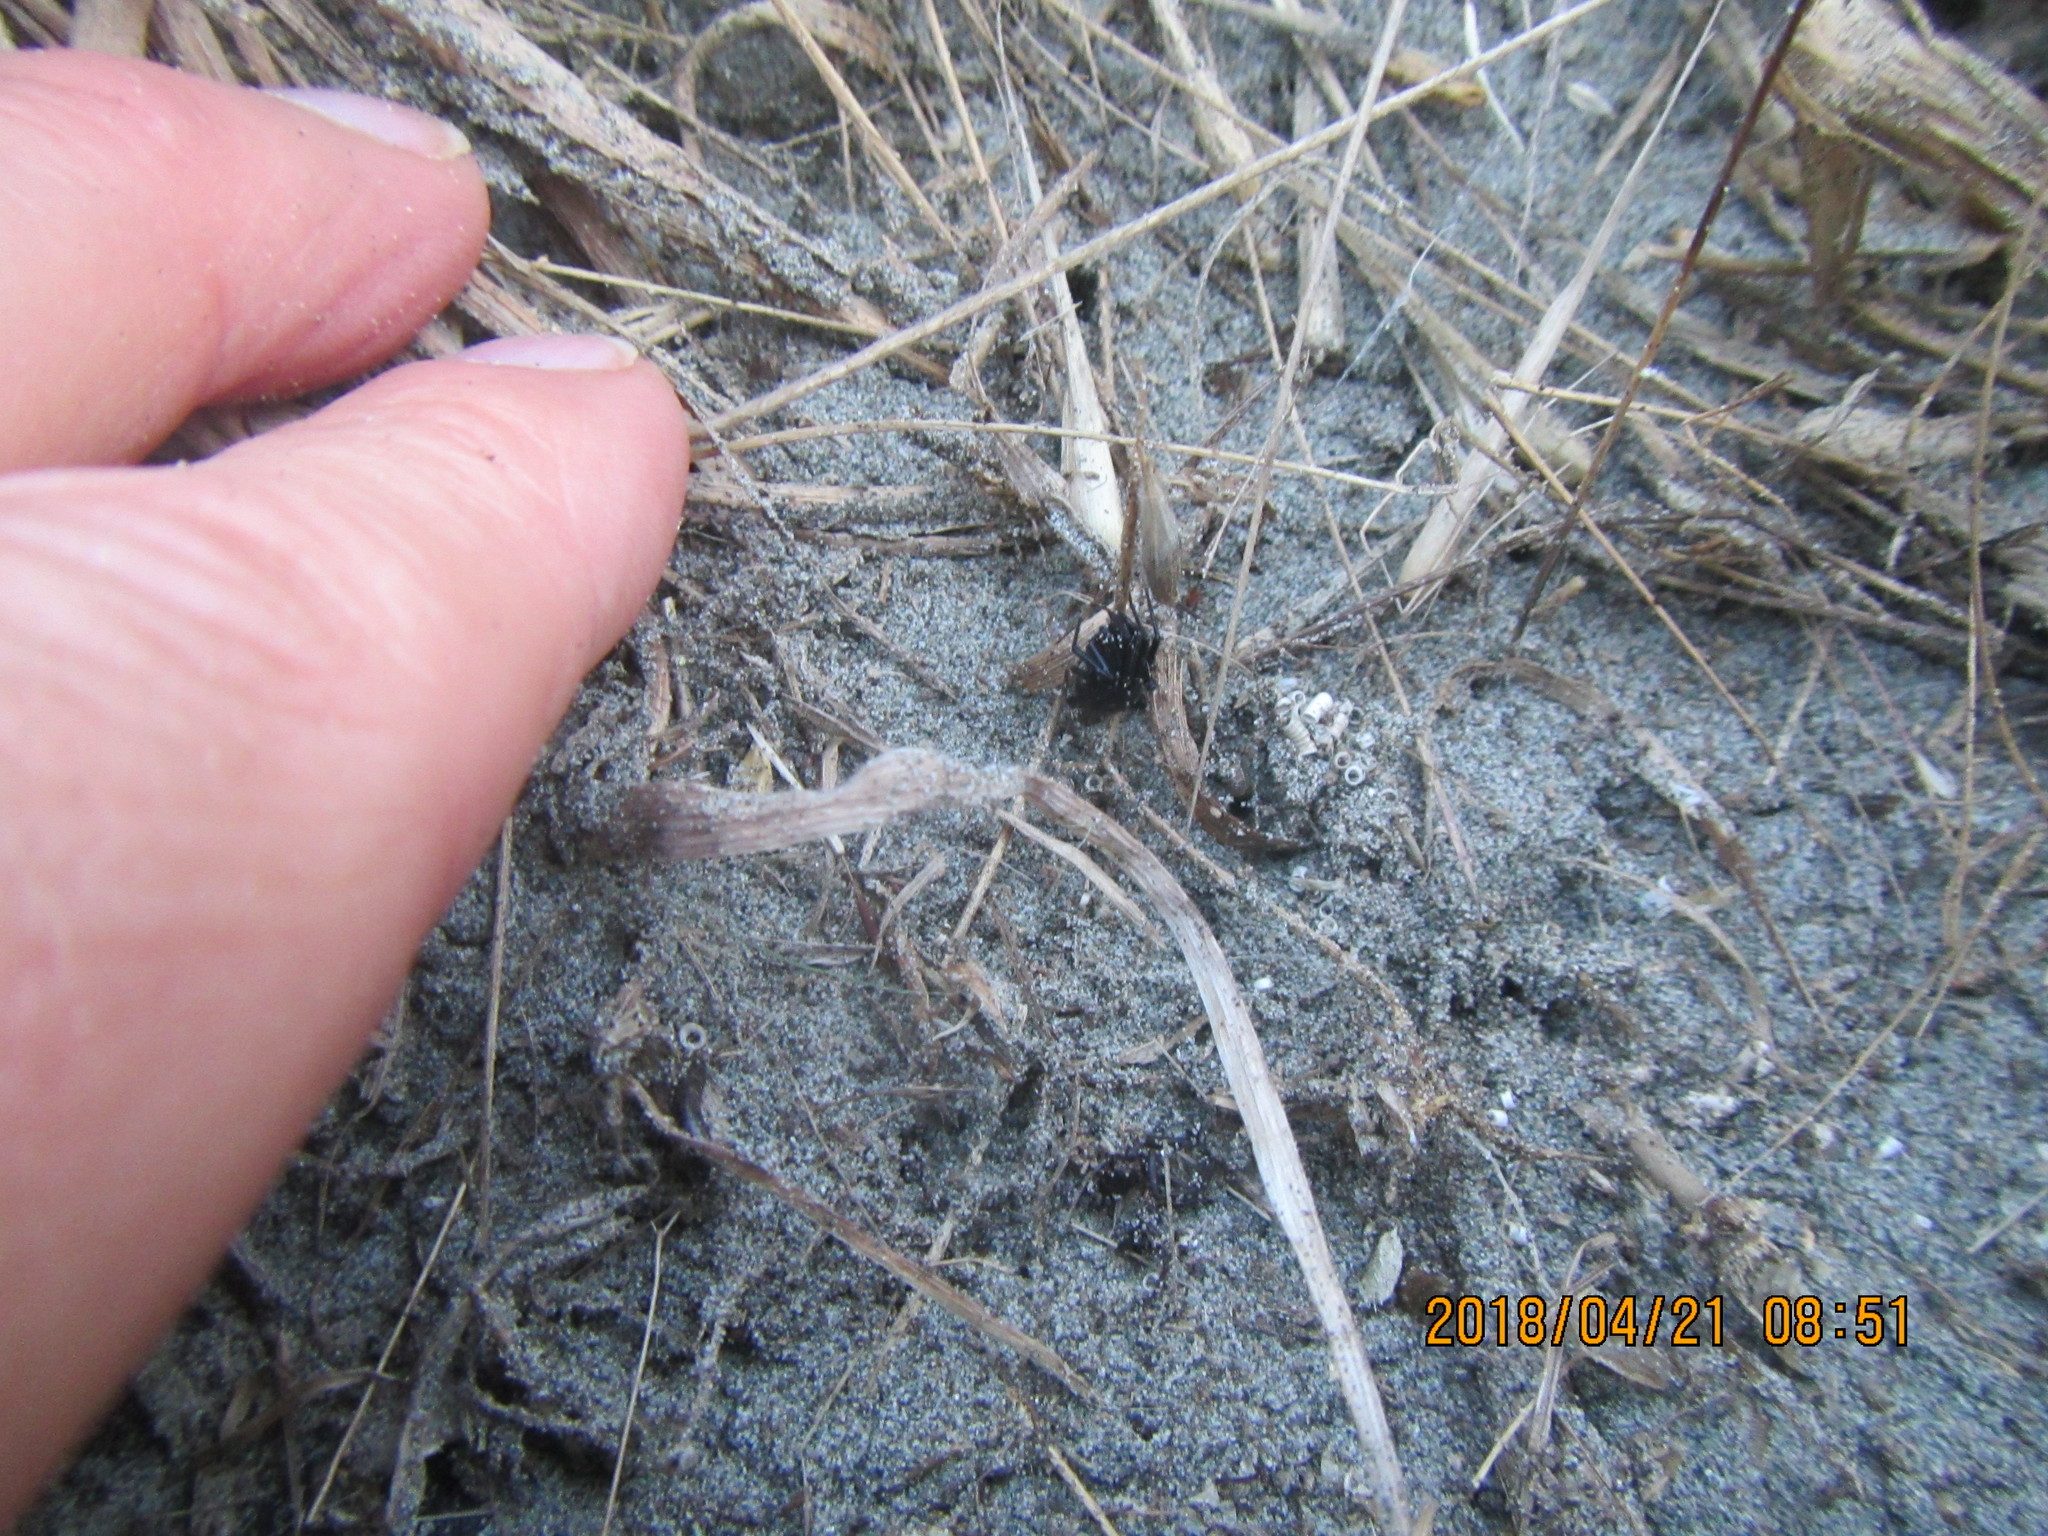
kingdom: Animalia
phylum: Arthropoda
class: Arachnida
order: Araneae
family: Theridiidae
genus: Steatoda
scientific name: Steatoda capensis
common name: Cobweb weaver
